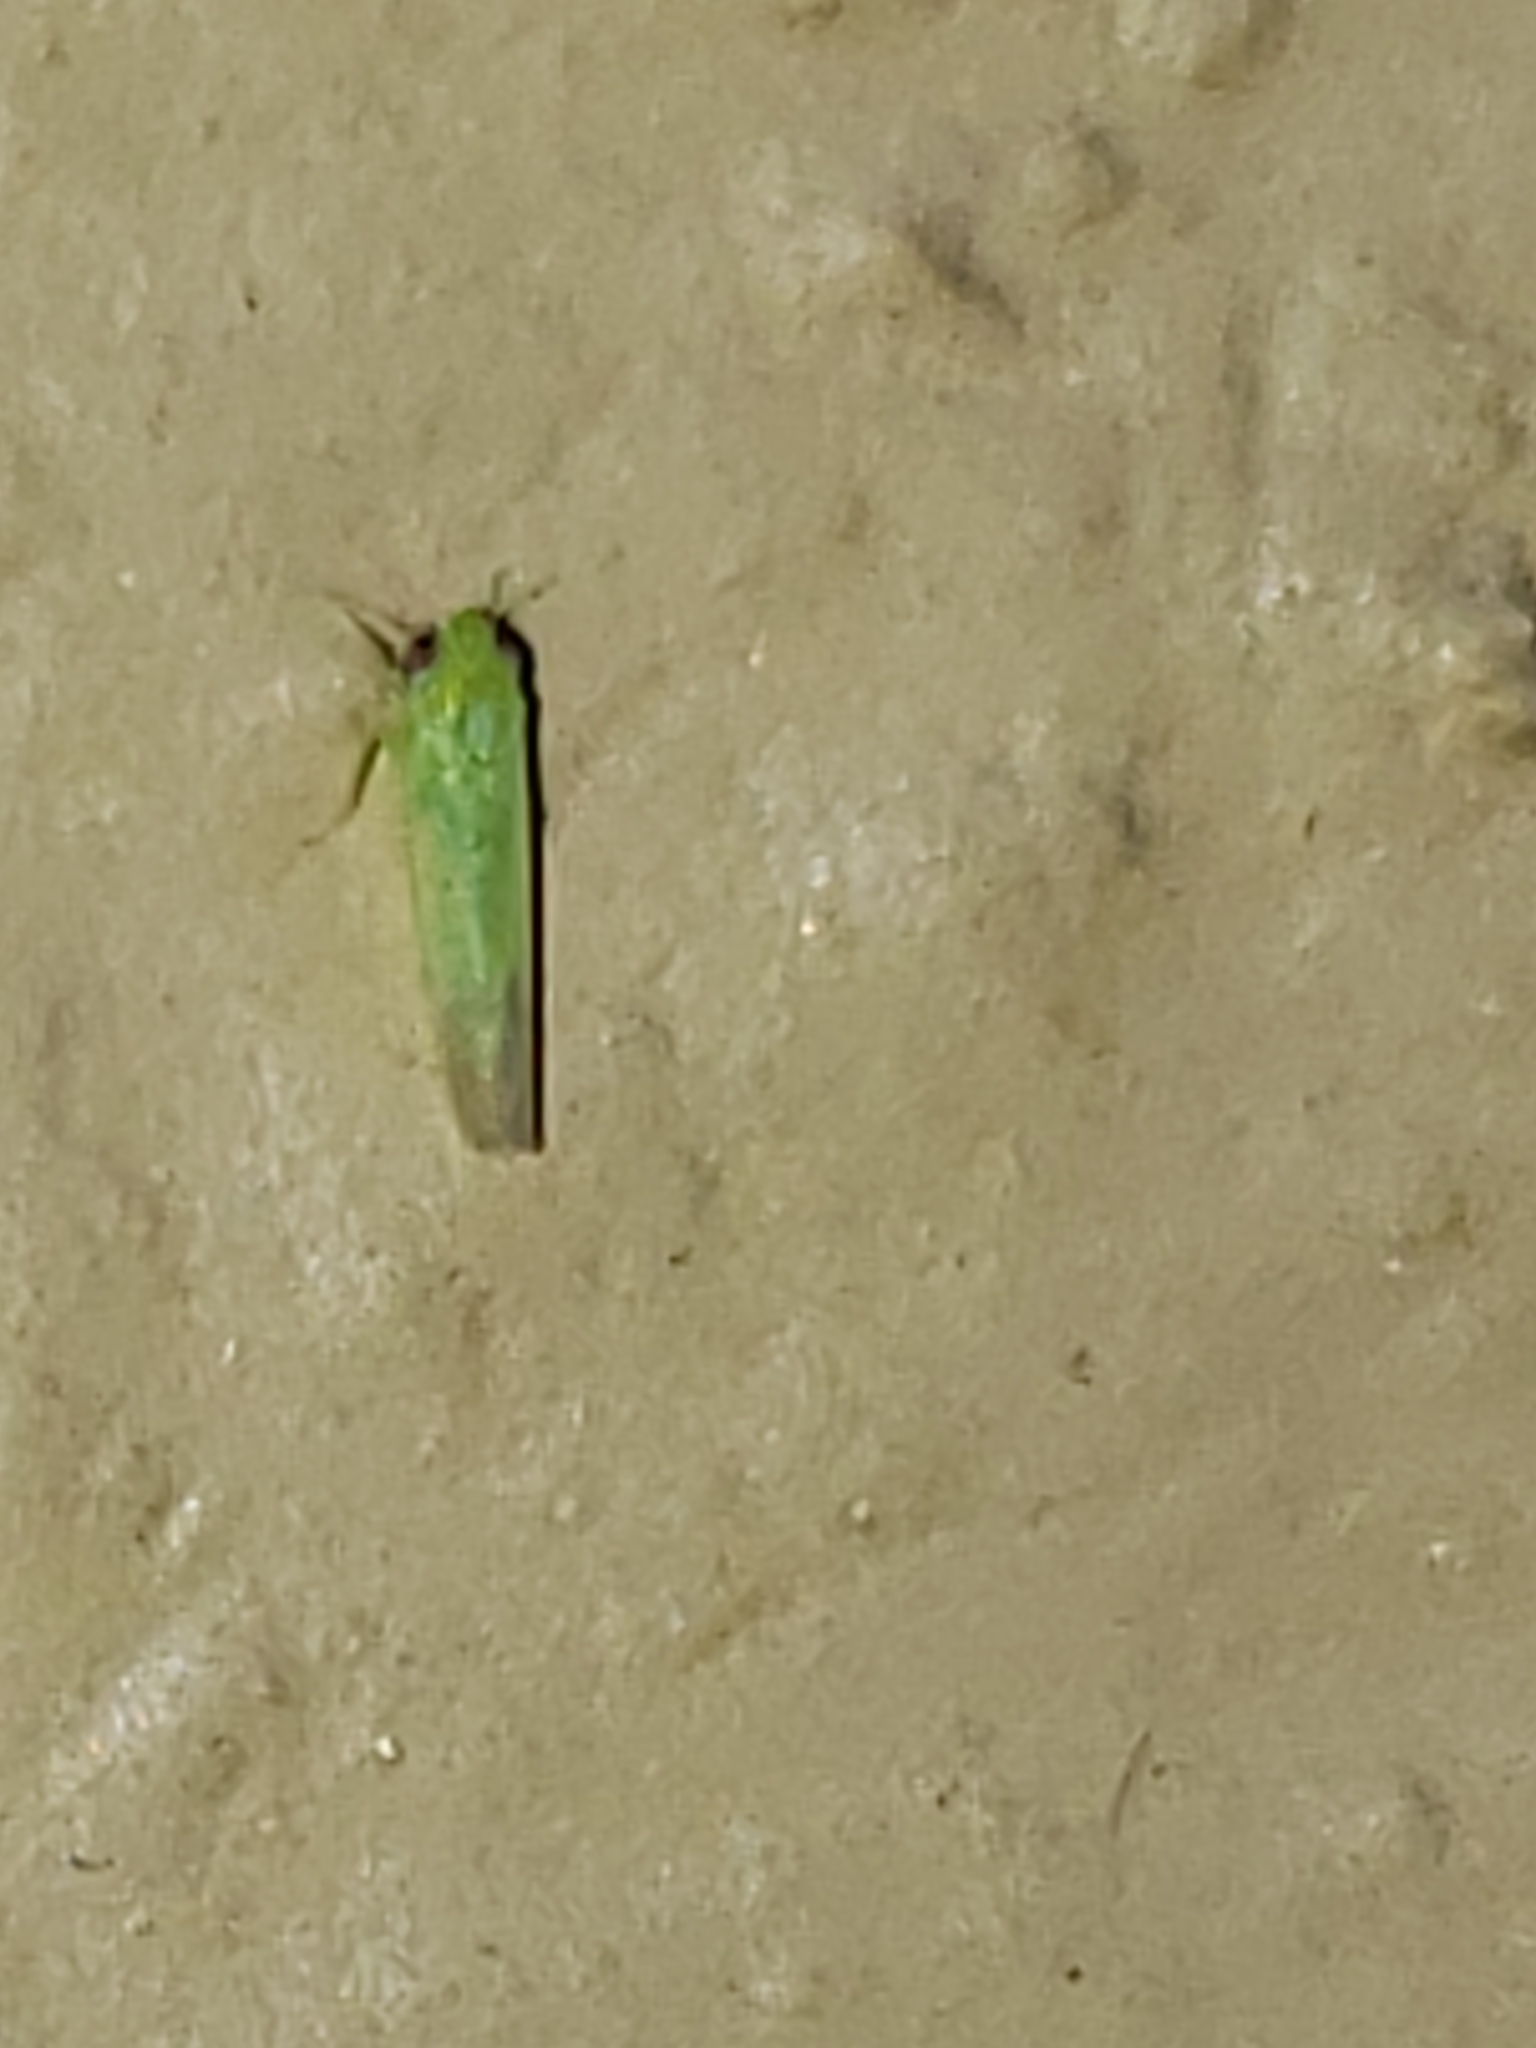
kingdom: Animalia
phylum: Arthropoda
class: Insecta
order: Hemiptera
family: Cicadellidae
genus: Empoasca
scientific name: Empoasca fabae
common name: Potato leafhopper
